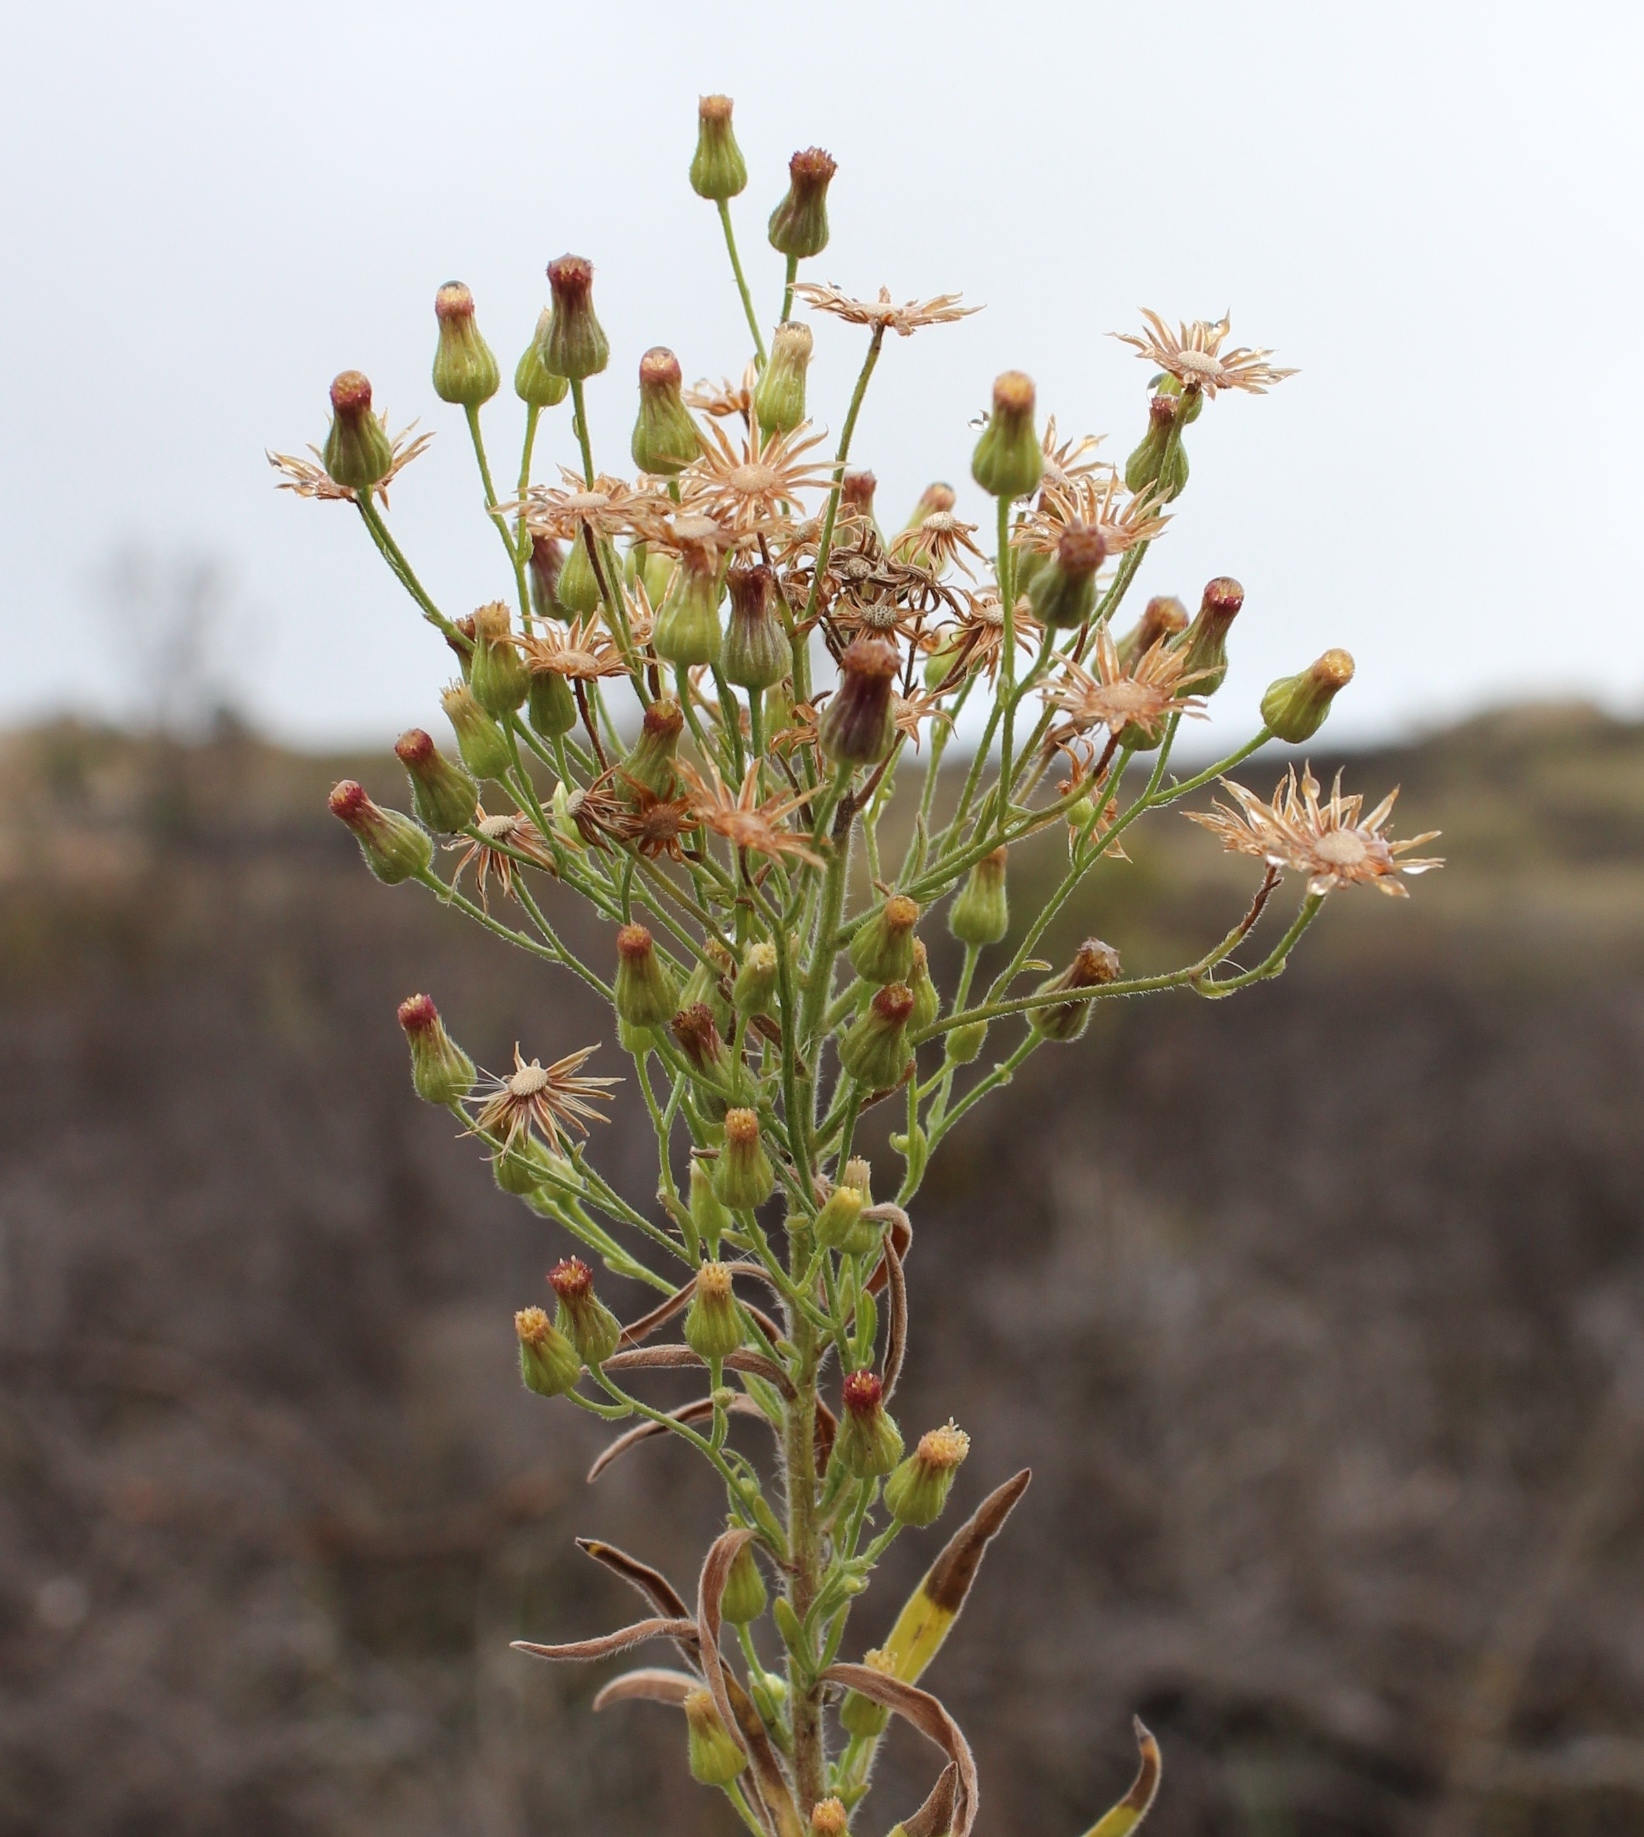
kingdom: Plantae
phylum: Tracheophyta
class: Magnoliopsida
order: Asterales
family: Asteraceae
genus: Erigeron
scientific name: Erigeron sumatrensis
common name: Daisy
